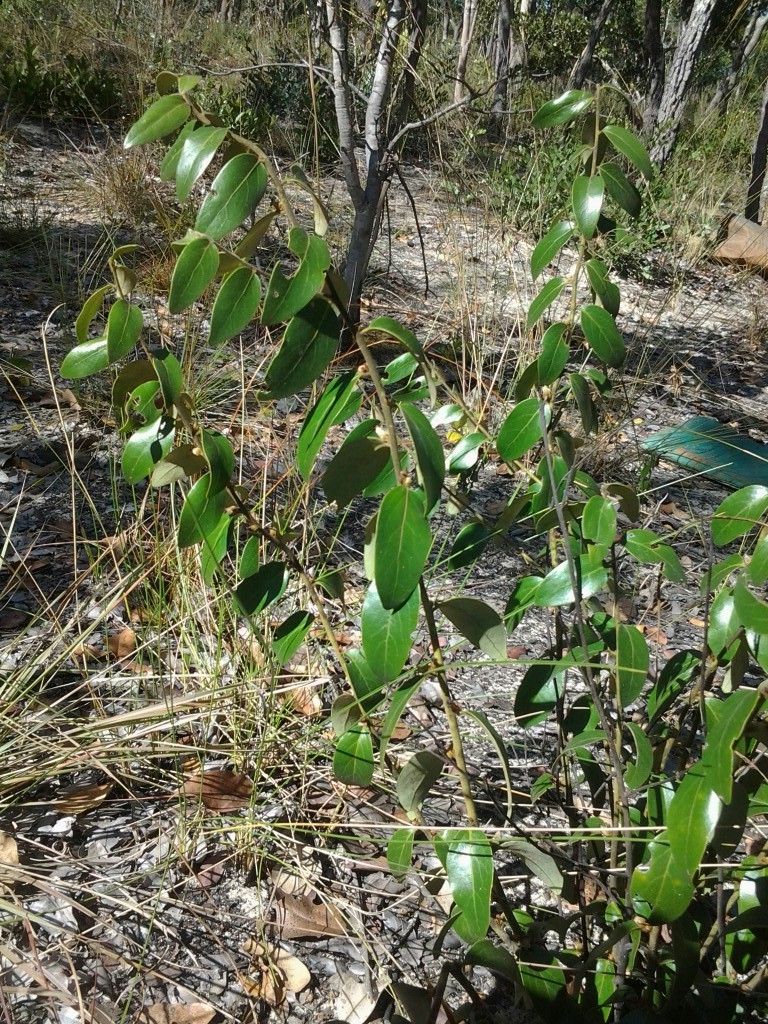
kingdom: Plantae
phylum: Tracheophyta
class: Magnoliopsida
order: Ericales
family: Ebenaceae
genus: Diospyros
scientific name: Diospyros virgata
